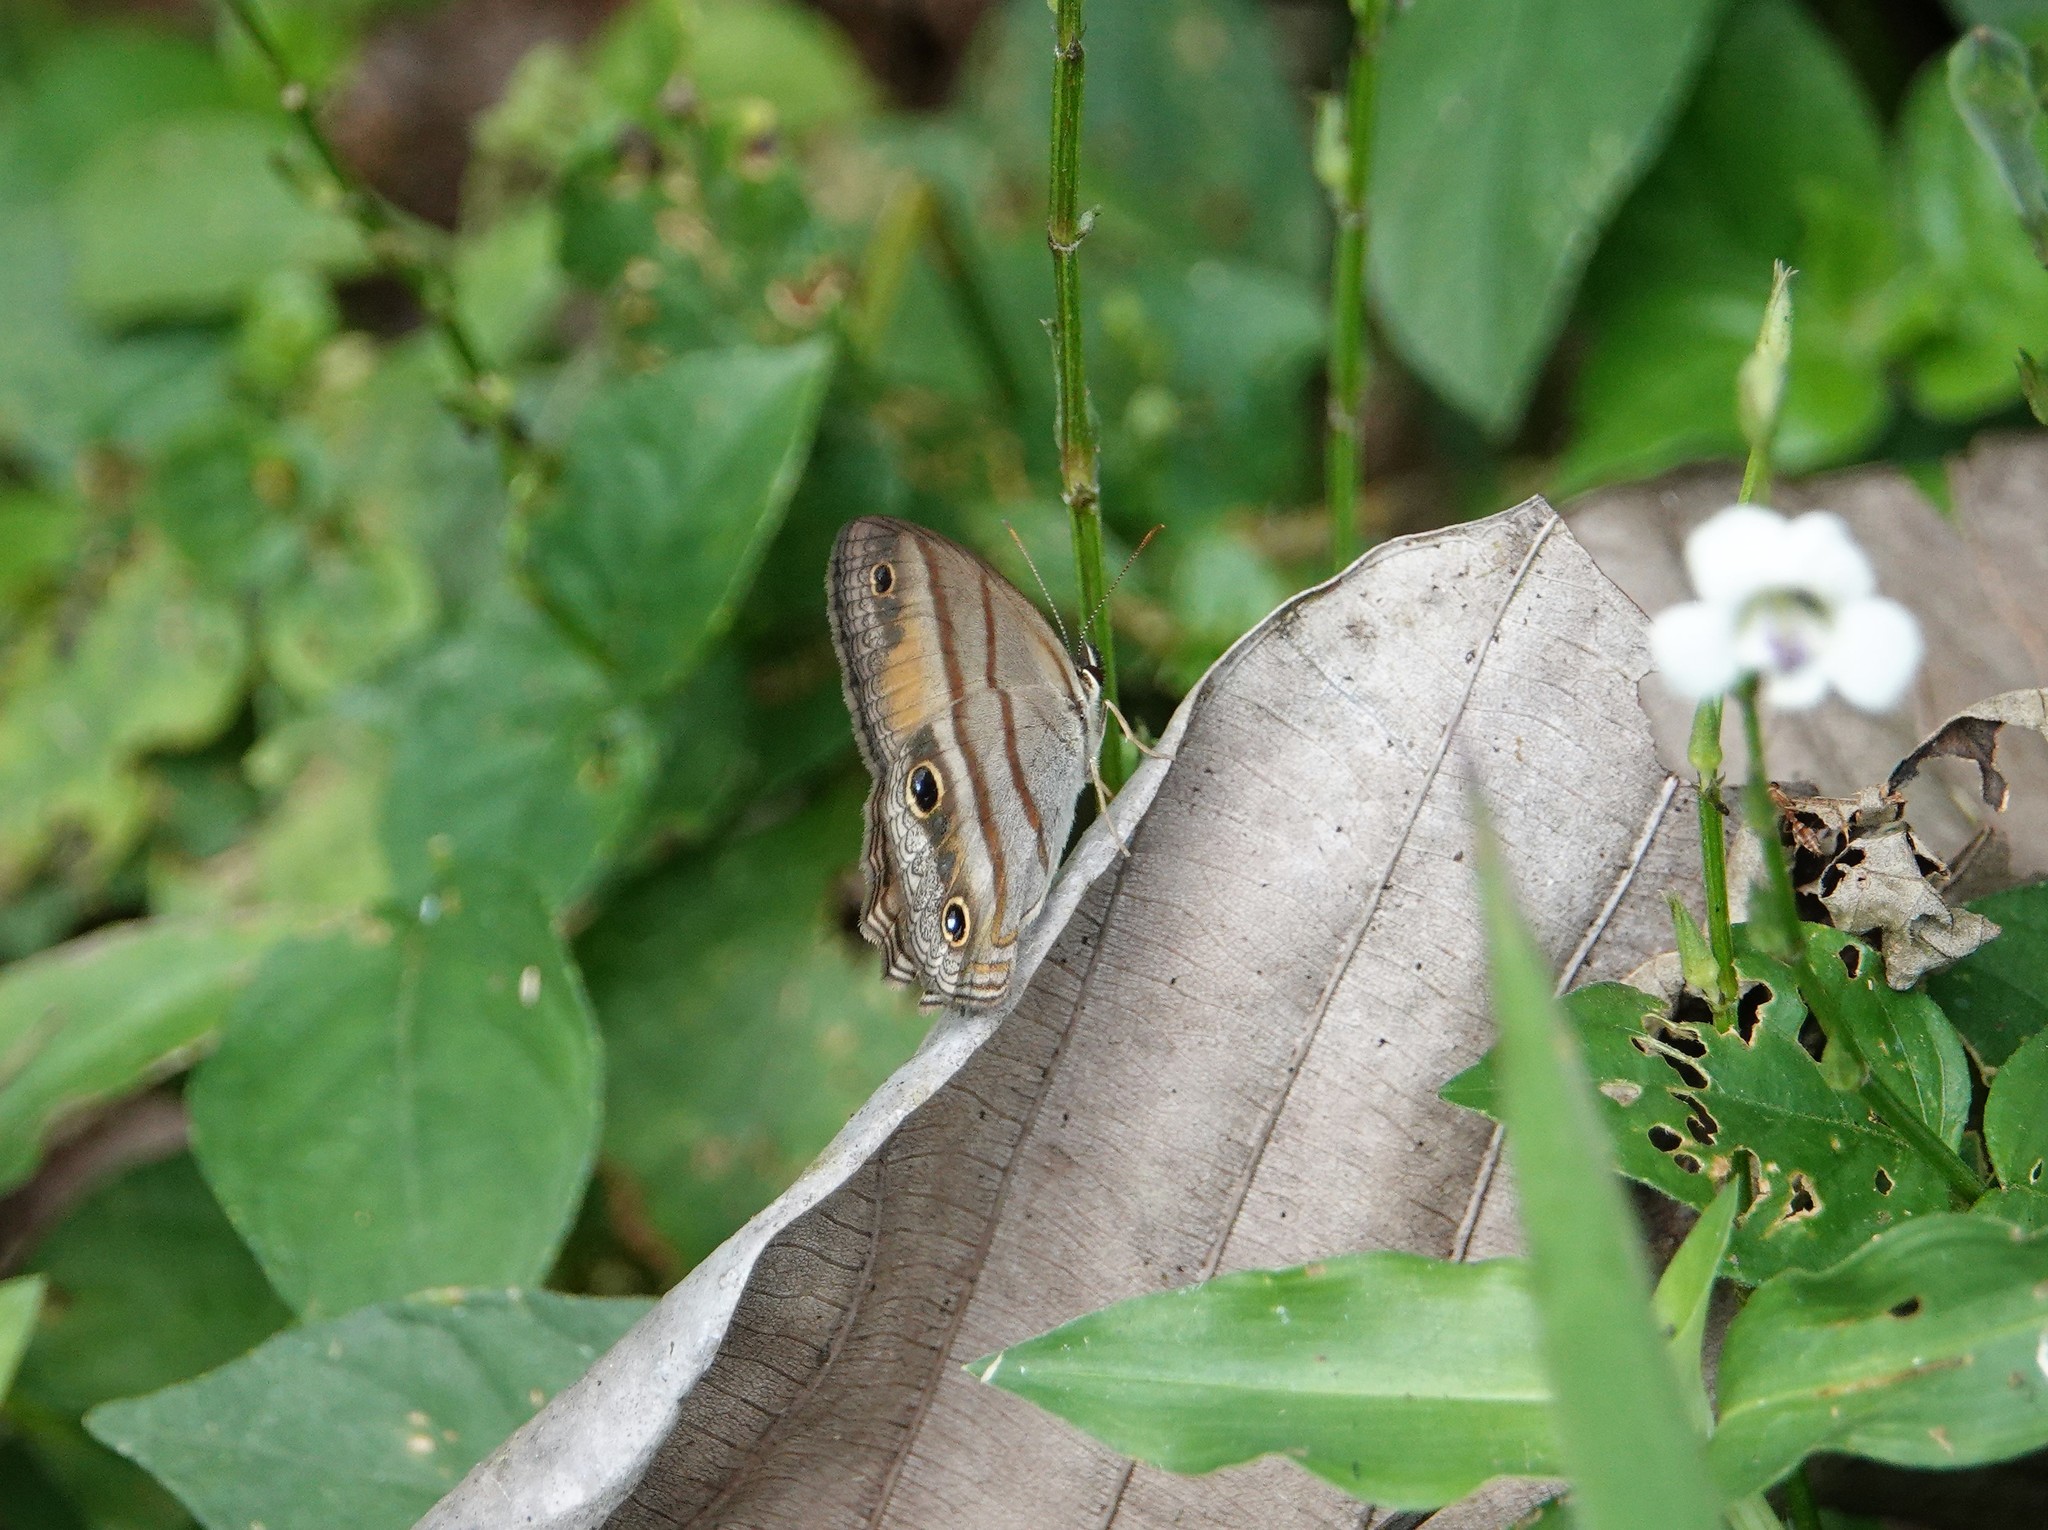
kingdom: Animalia
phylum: Arthropoda
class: Insecta
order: Lepidoptera
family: Nymphalidae
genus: Argyreuptychia
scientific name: Argyreuptychia penelope
